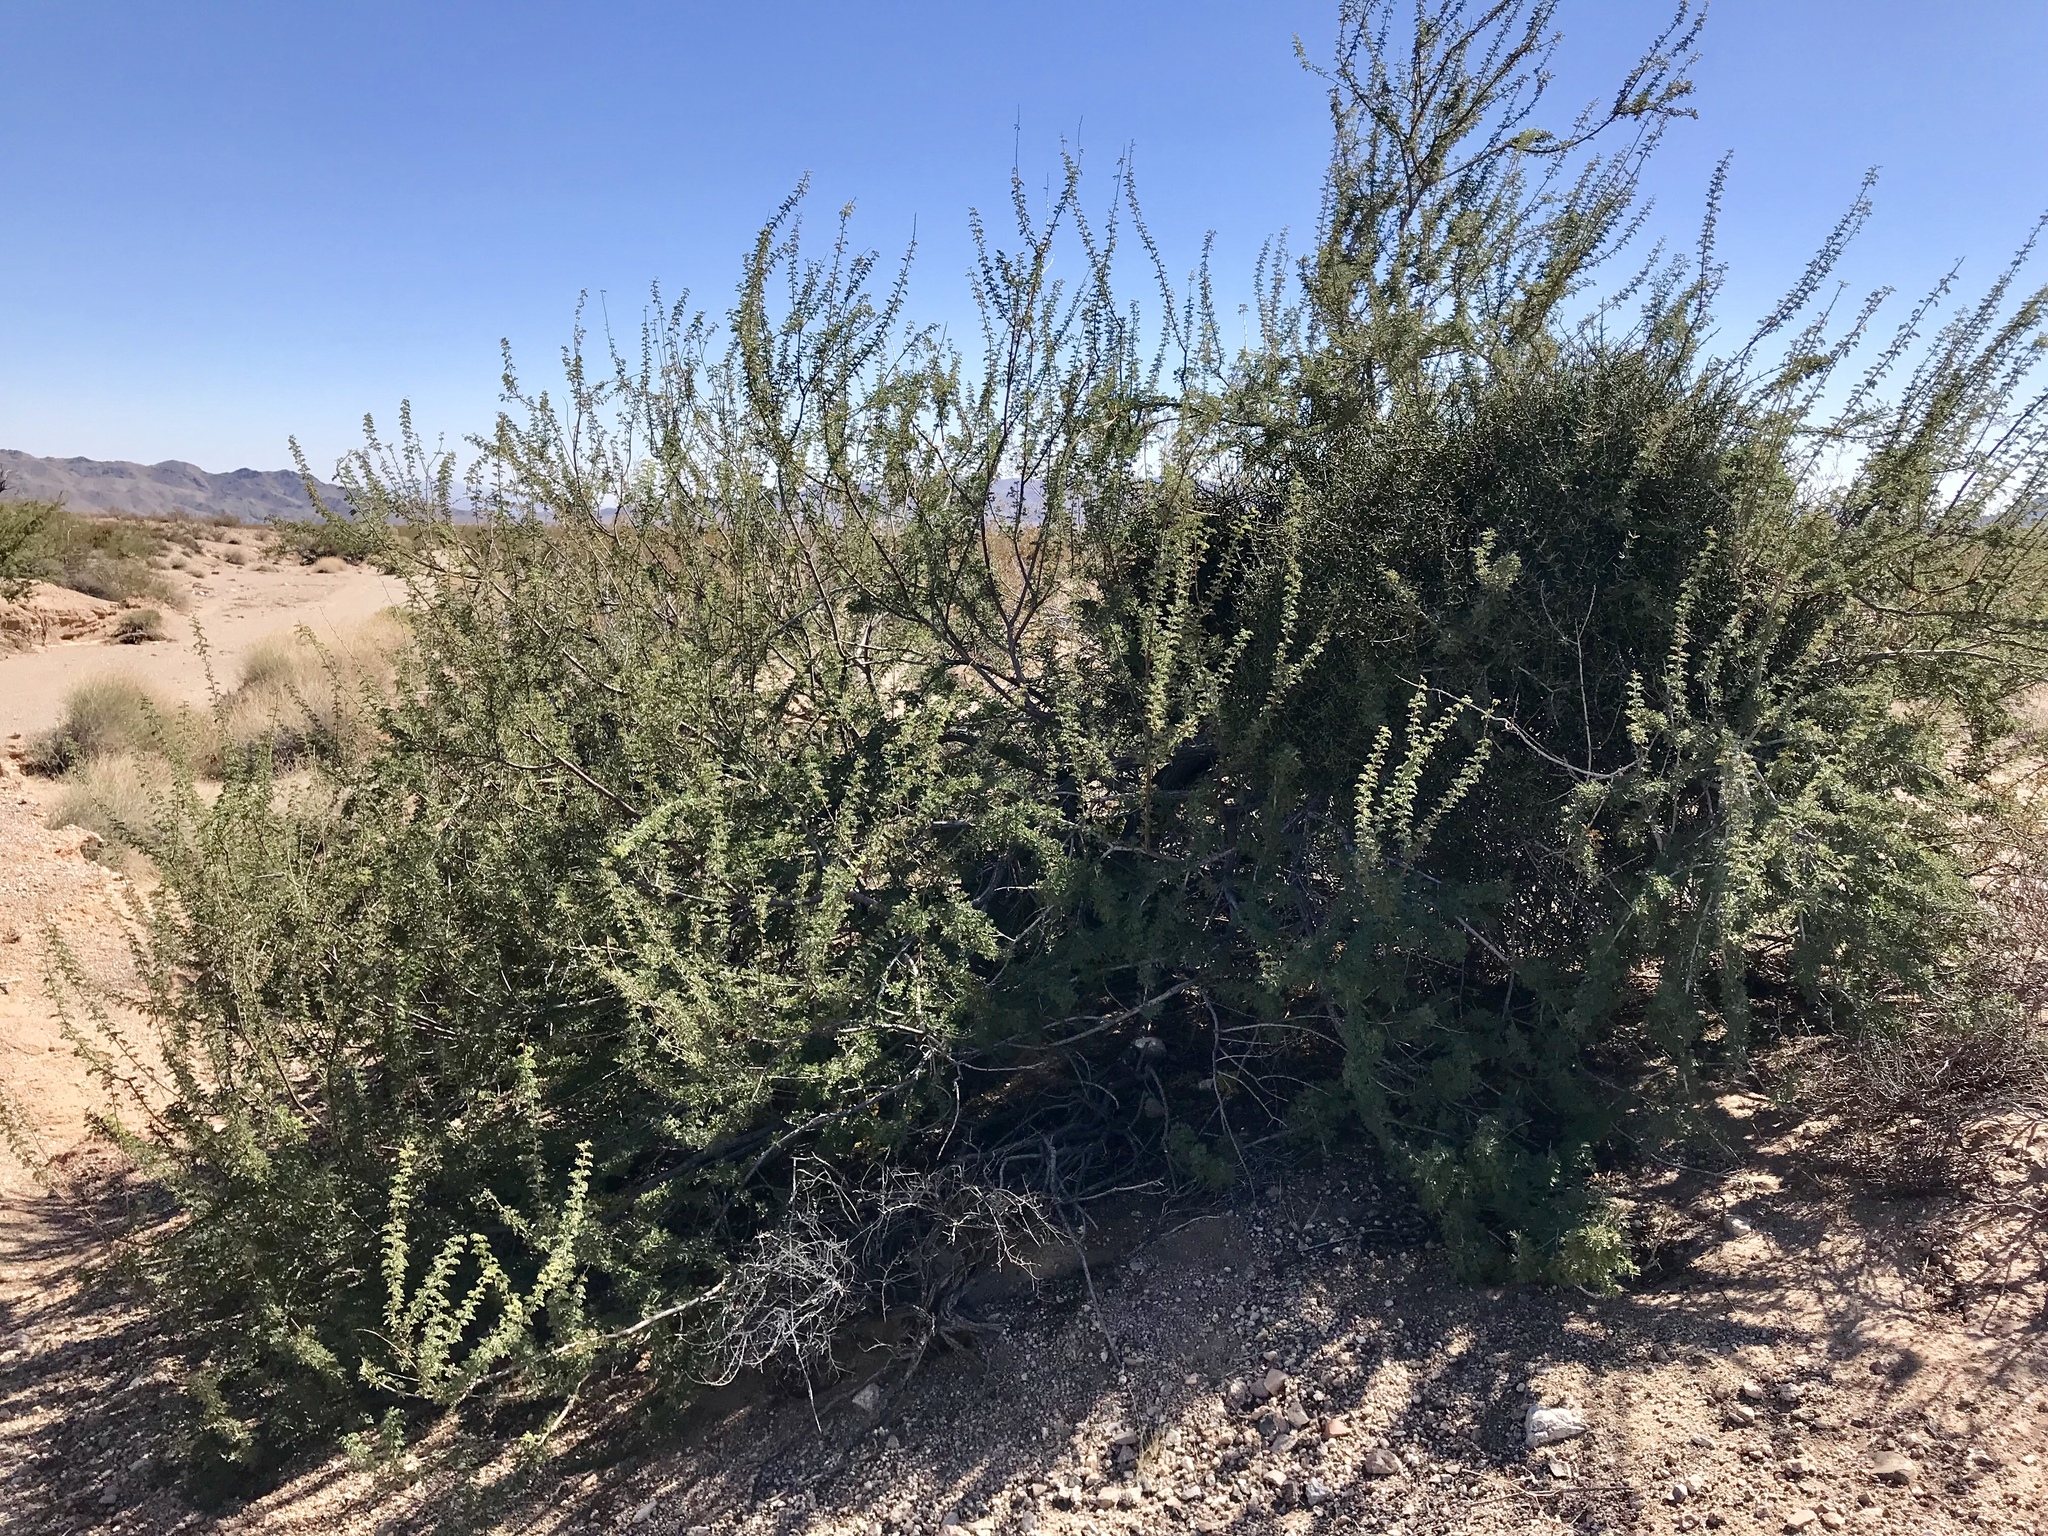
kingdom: Plantae
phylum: Tracheophyta
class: Magnoliopsida
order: Fabales
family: Fabaceae
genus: Senegalia
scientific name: Senegalia greggii
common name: Texas-mimosa
